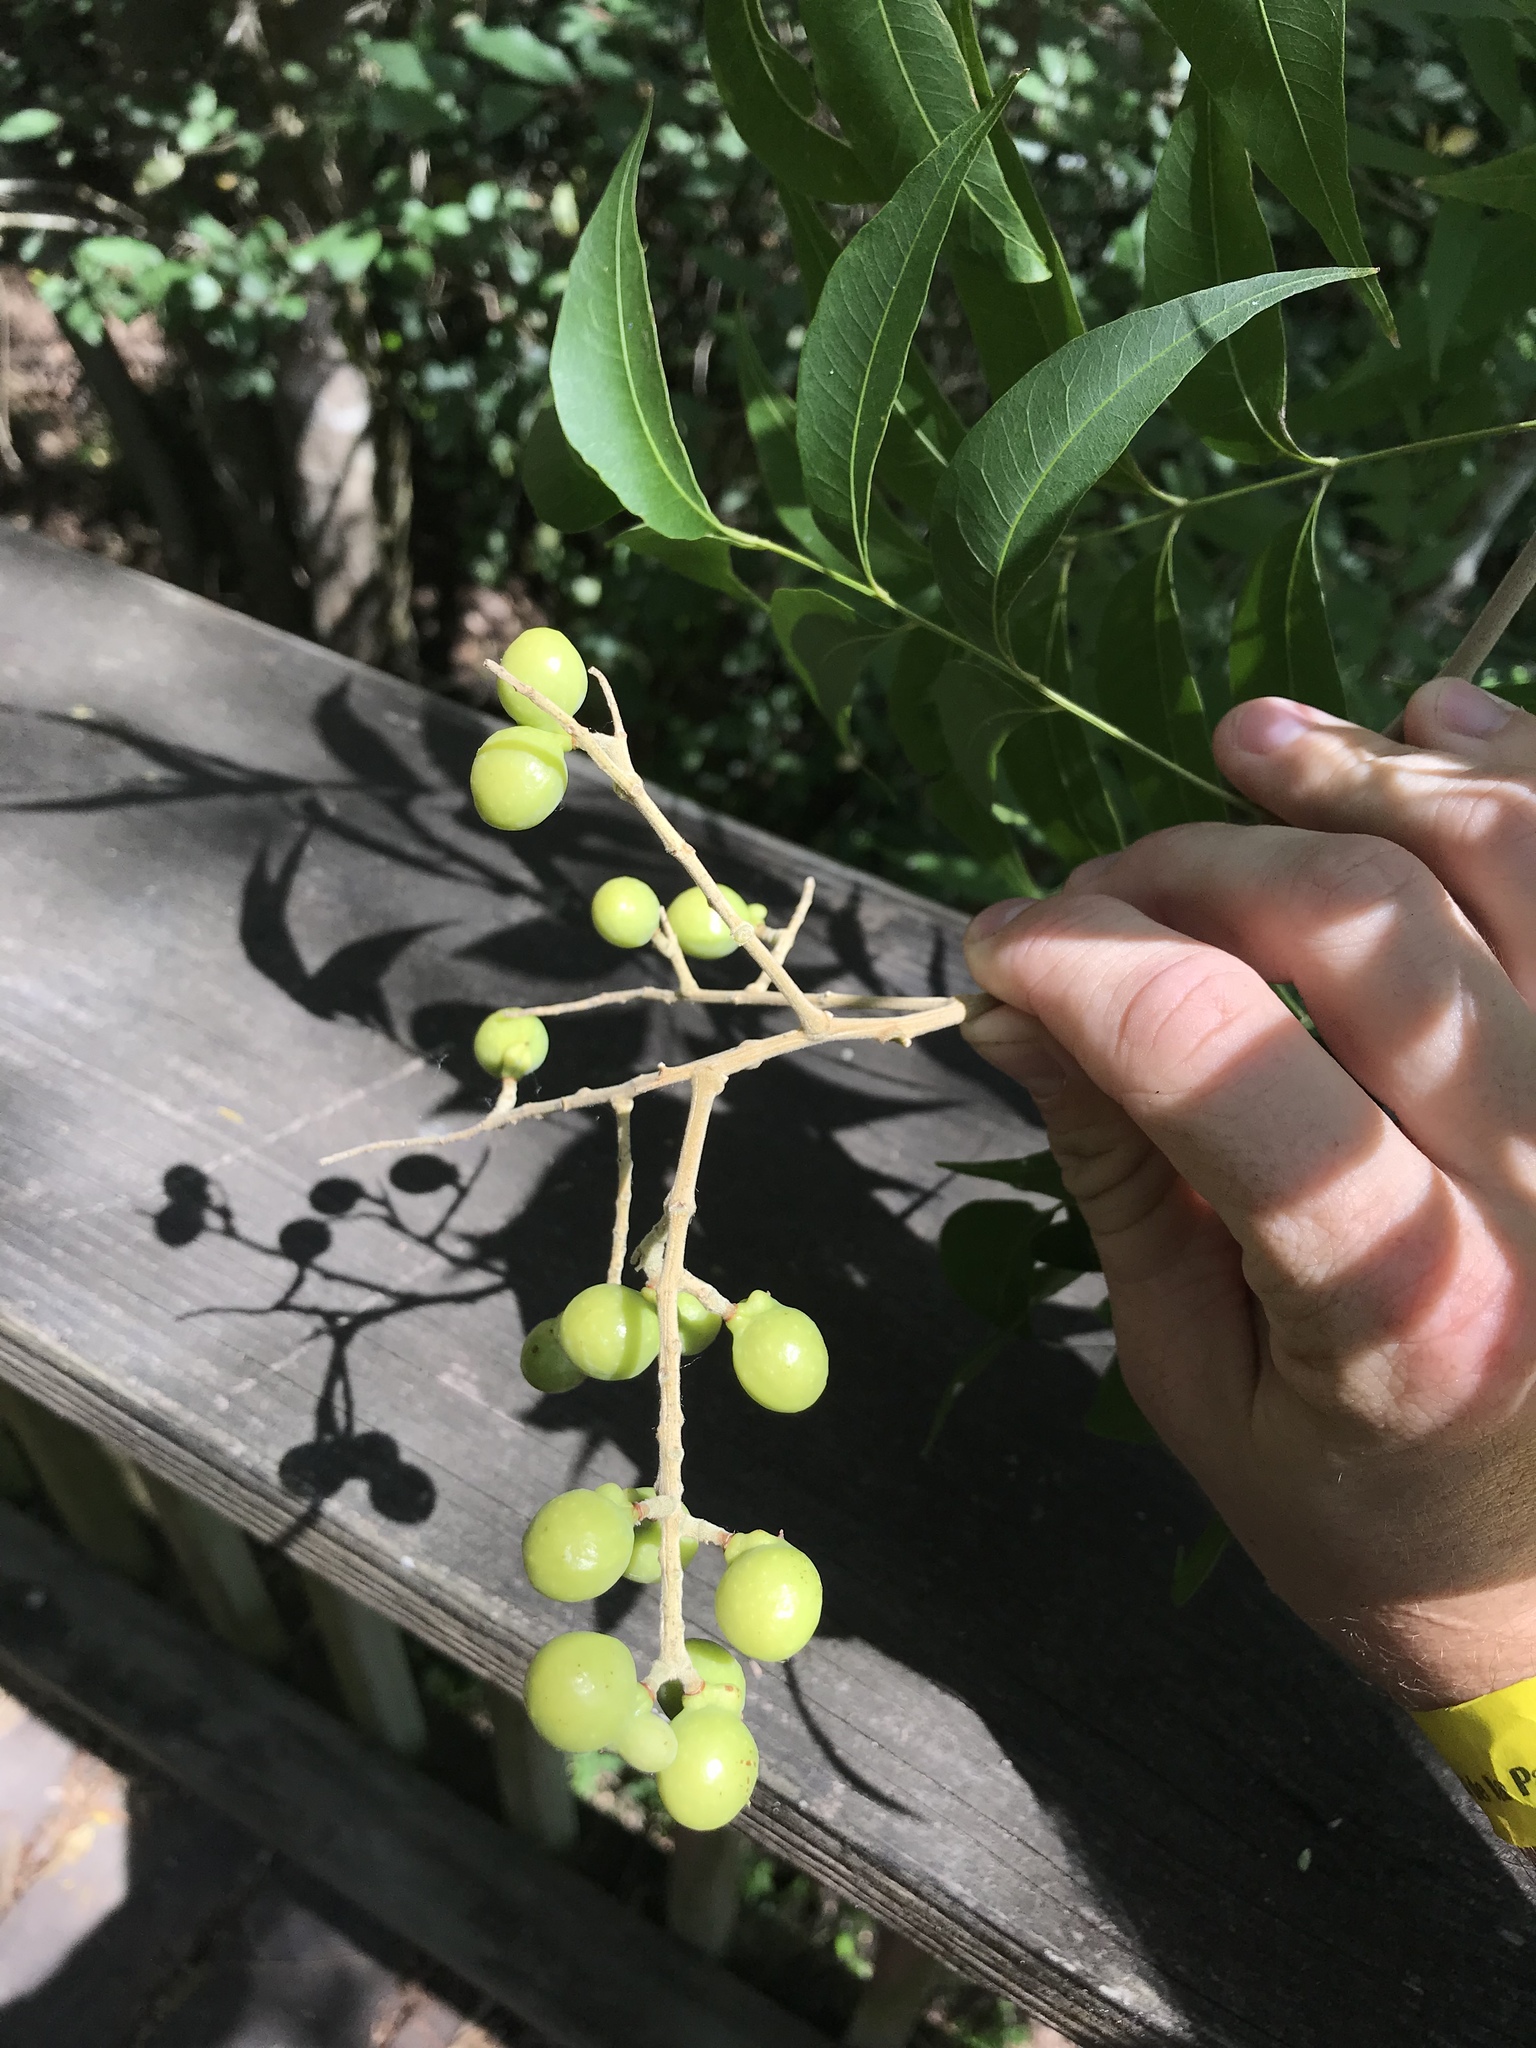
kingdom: Plantae
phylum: Tracheophyta
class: Magnoliopsida
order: Sapindales
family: Sapindaceae
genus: Sapindus
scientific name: Sapindus drummondii
